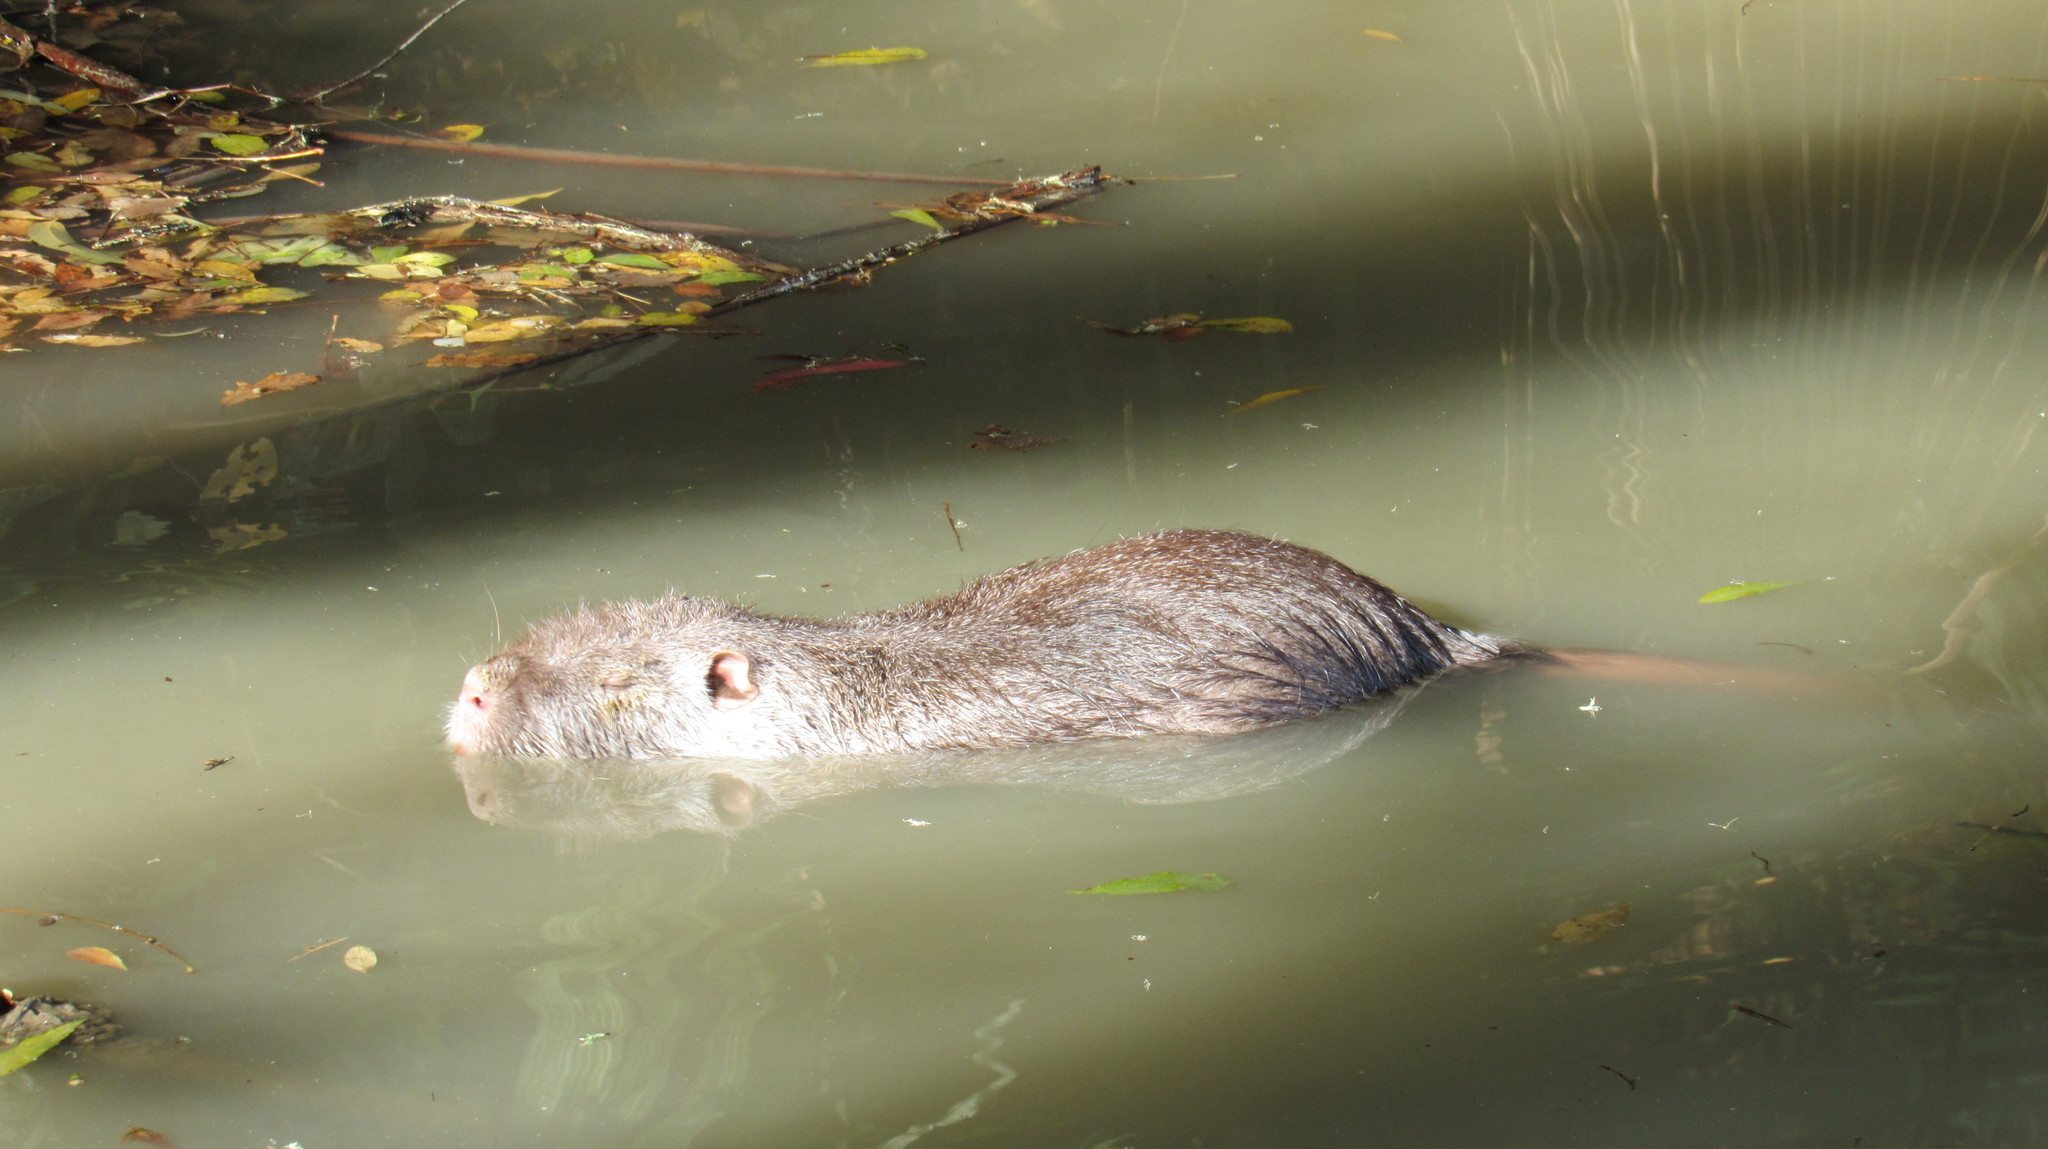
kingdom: Animalia
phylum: Chordata
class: Mammalia
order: Rodentia
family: Myocastoridae
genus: Myocastor
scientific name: Myocastor coypus
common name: Coypu
